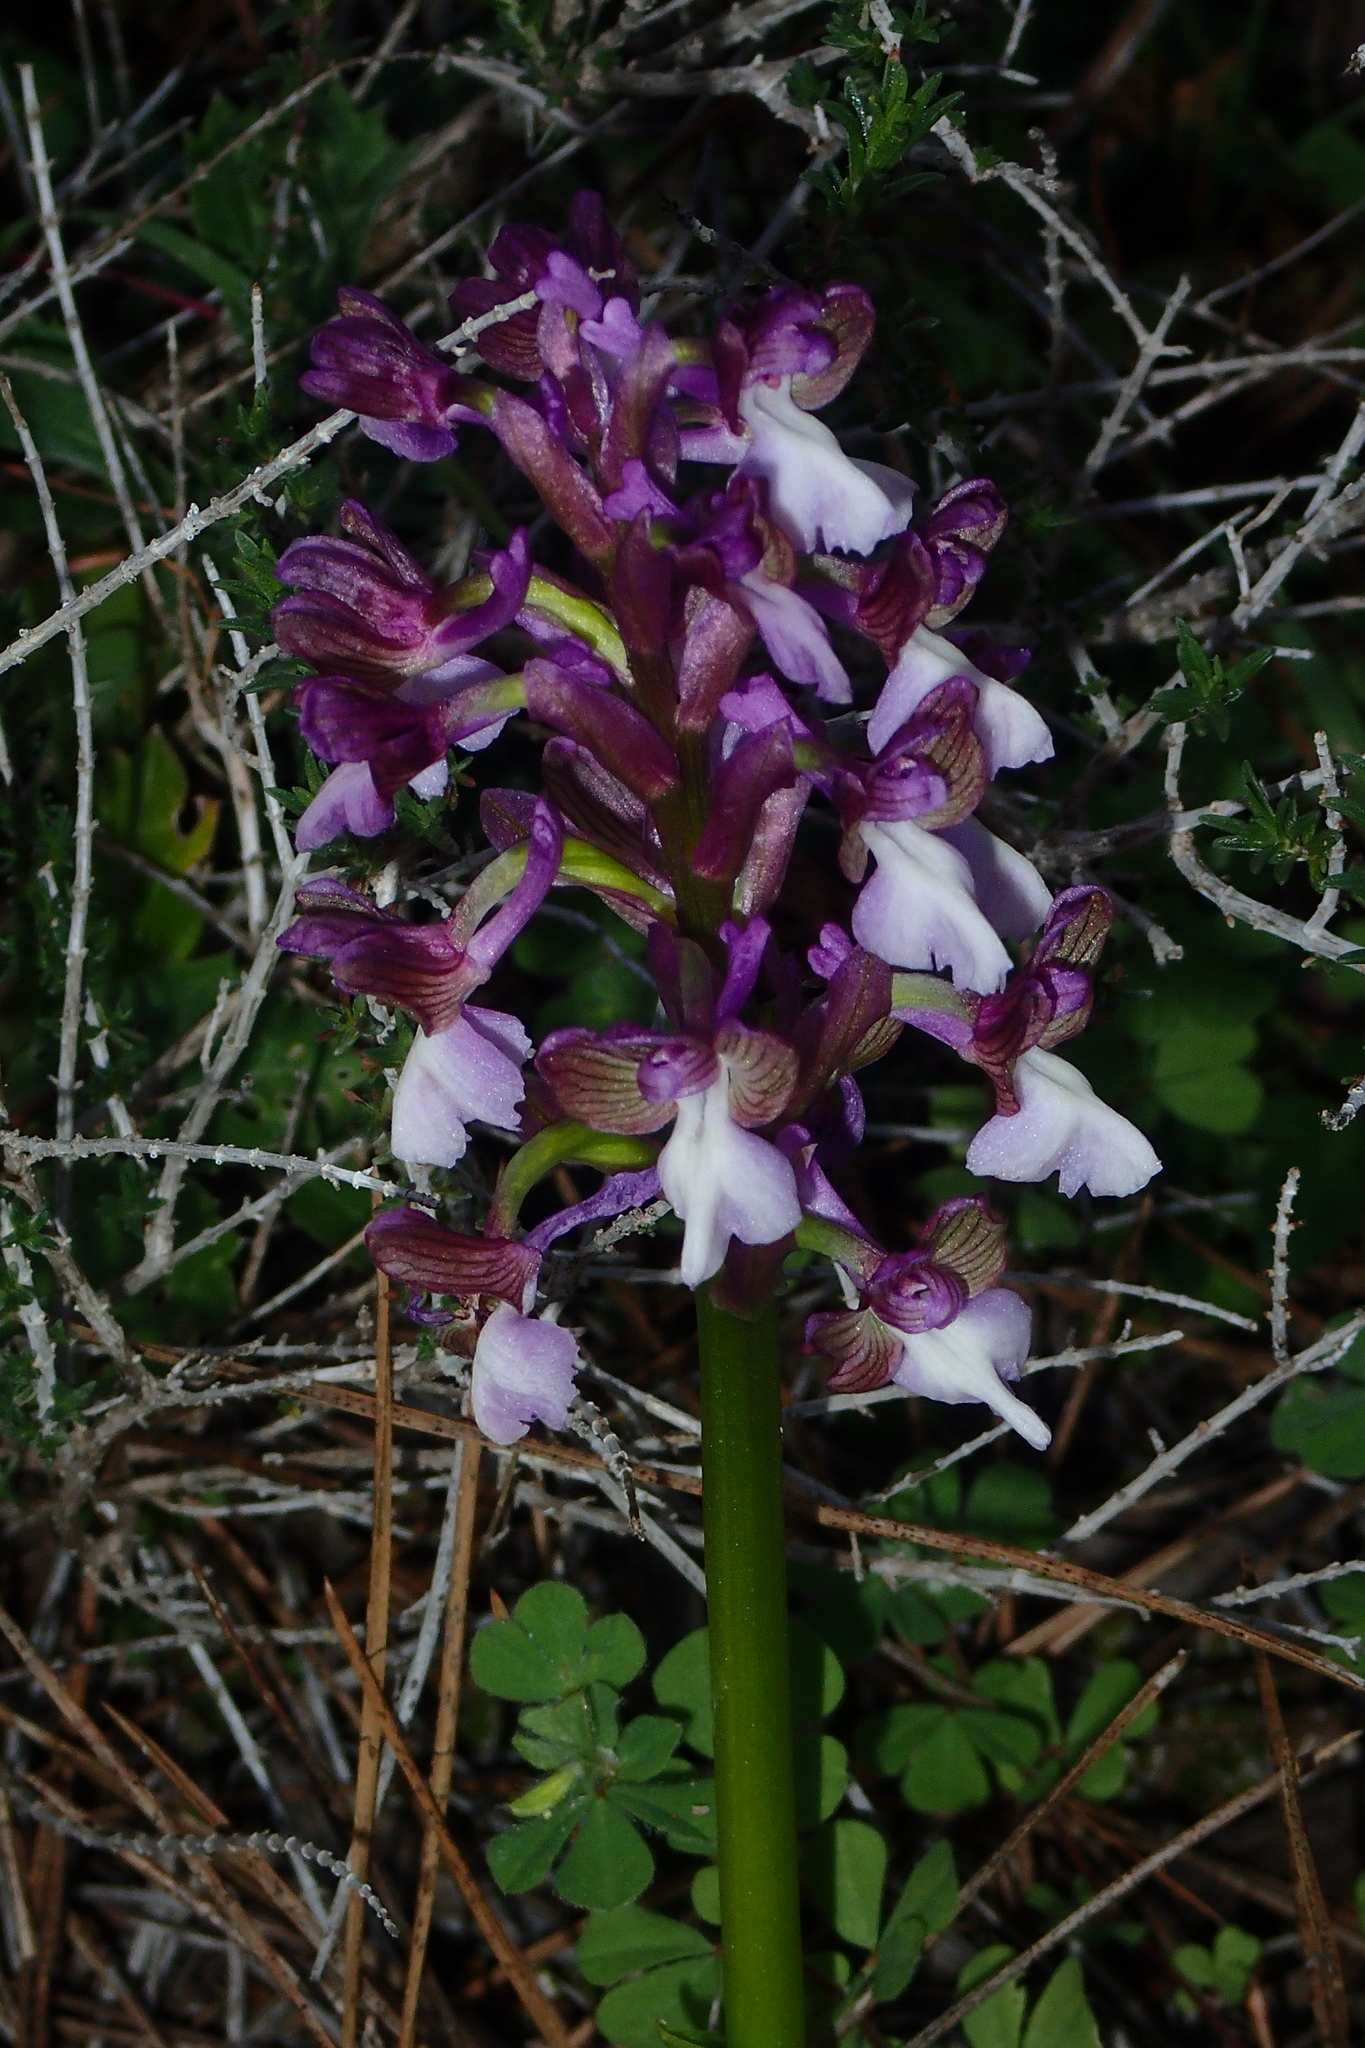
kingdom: Plantae
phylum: Tracheophyta
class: Liliopsida
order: Asparagales
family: Orchidaceae
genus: Anacamptis
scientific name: Anacamptis morio
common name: Green-winged orchid
